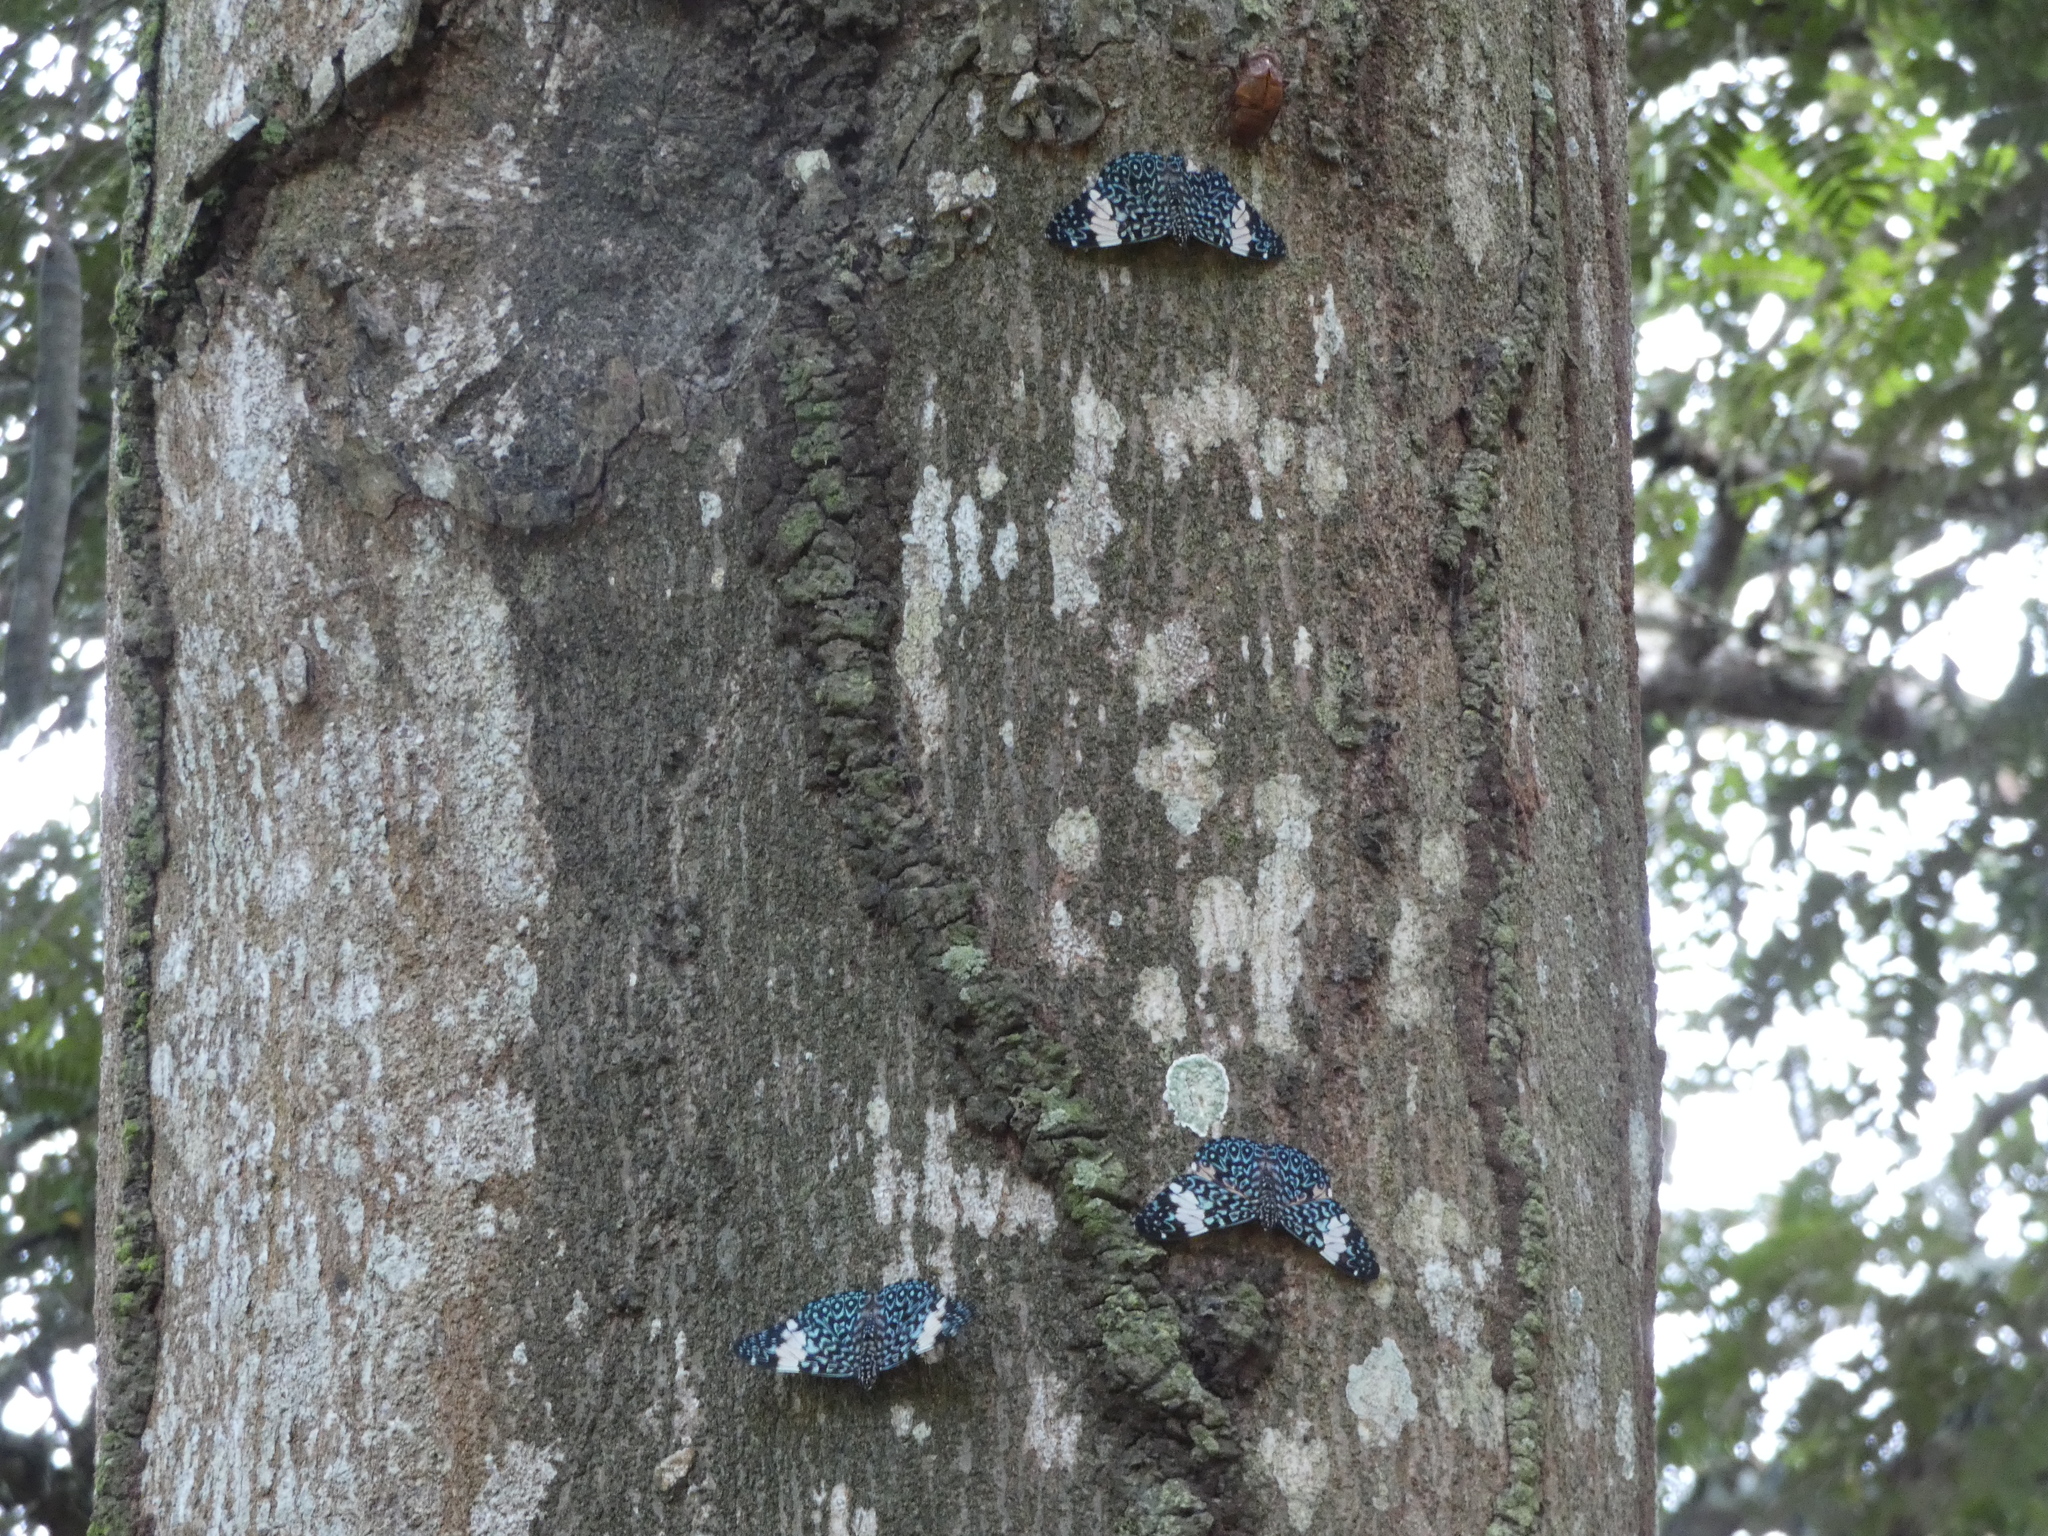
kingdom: Animalia
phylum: Arthropoda
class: Insecta
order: Lepidoptera
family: Nymphalidae
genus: Hamadryas
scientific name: Hamadryas amphinome
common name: Red cracker
